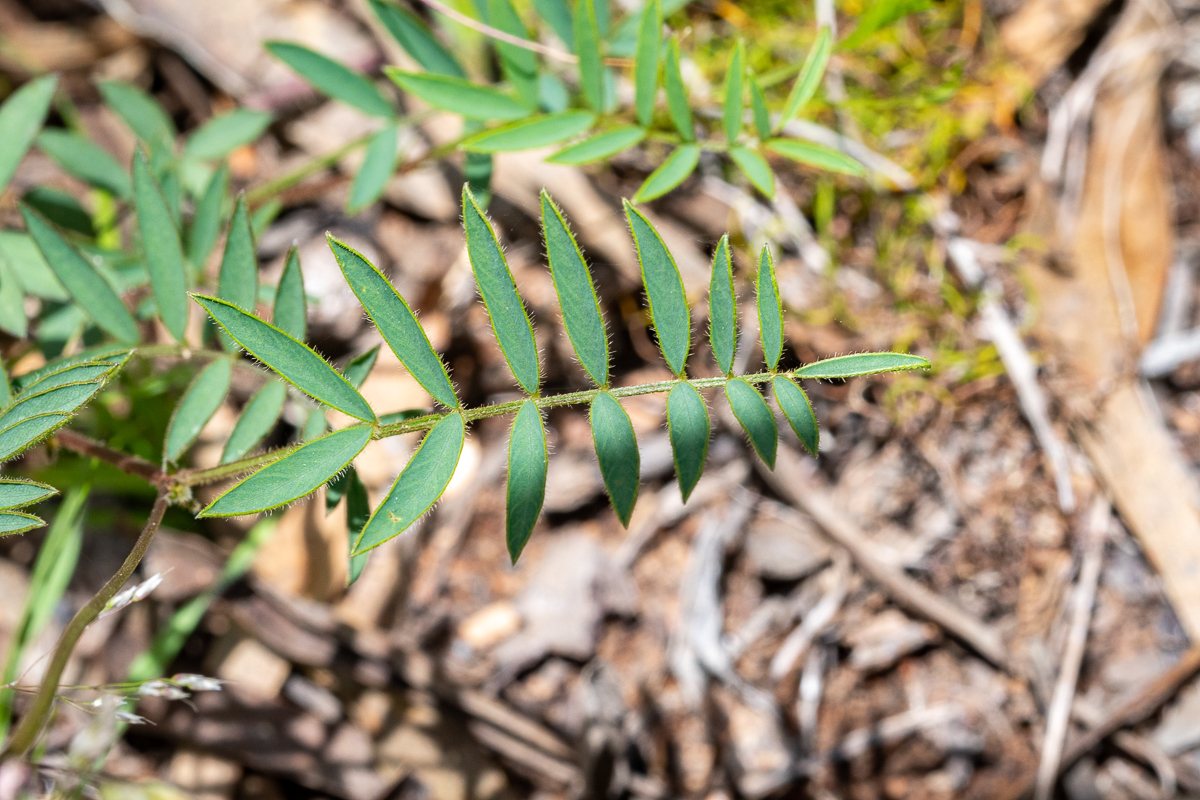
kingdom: Plantae
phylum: Tracheophyta
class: Magnoliopsida
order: Fabales
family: Fabaceae
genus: Tephrosia
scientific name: Tephrosia capensis
